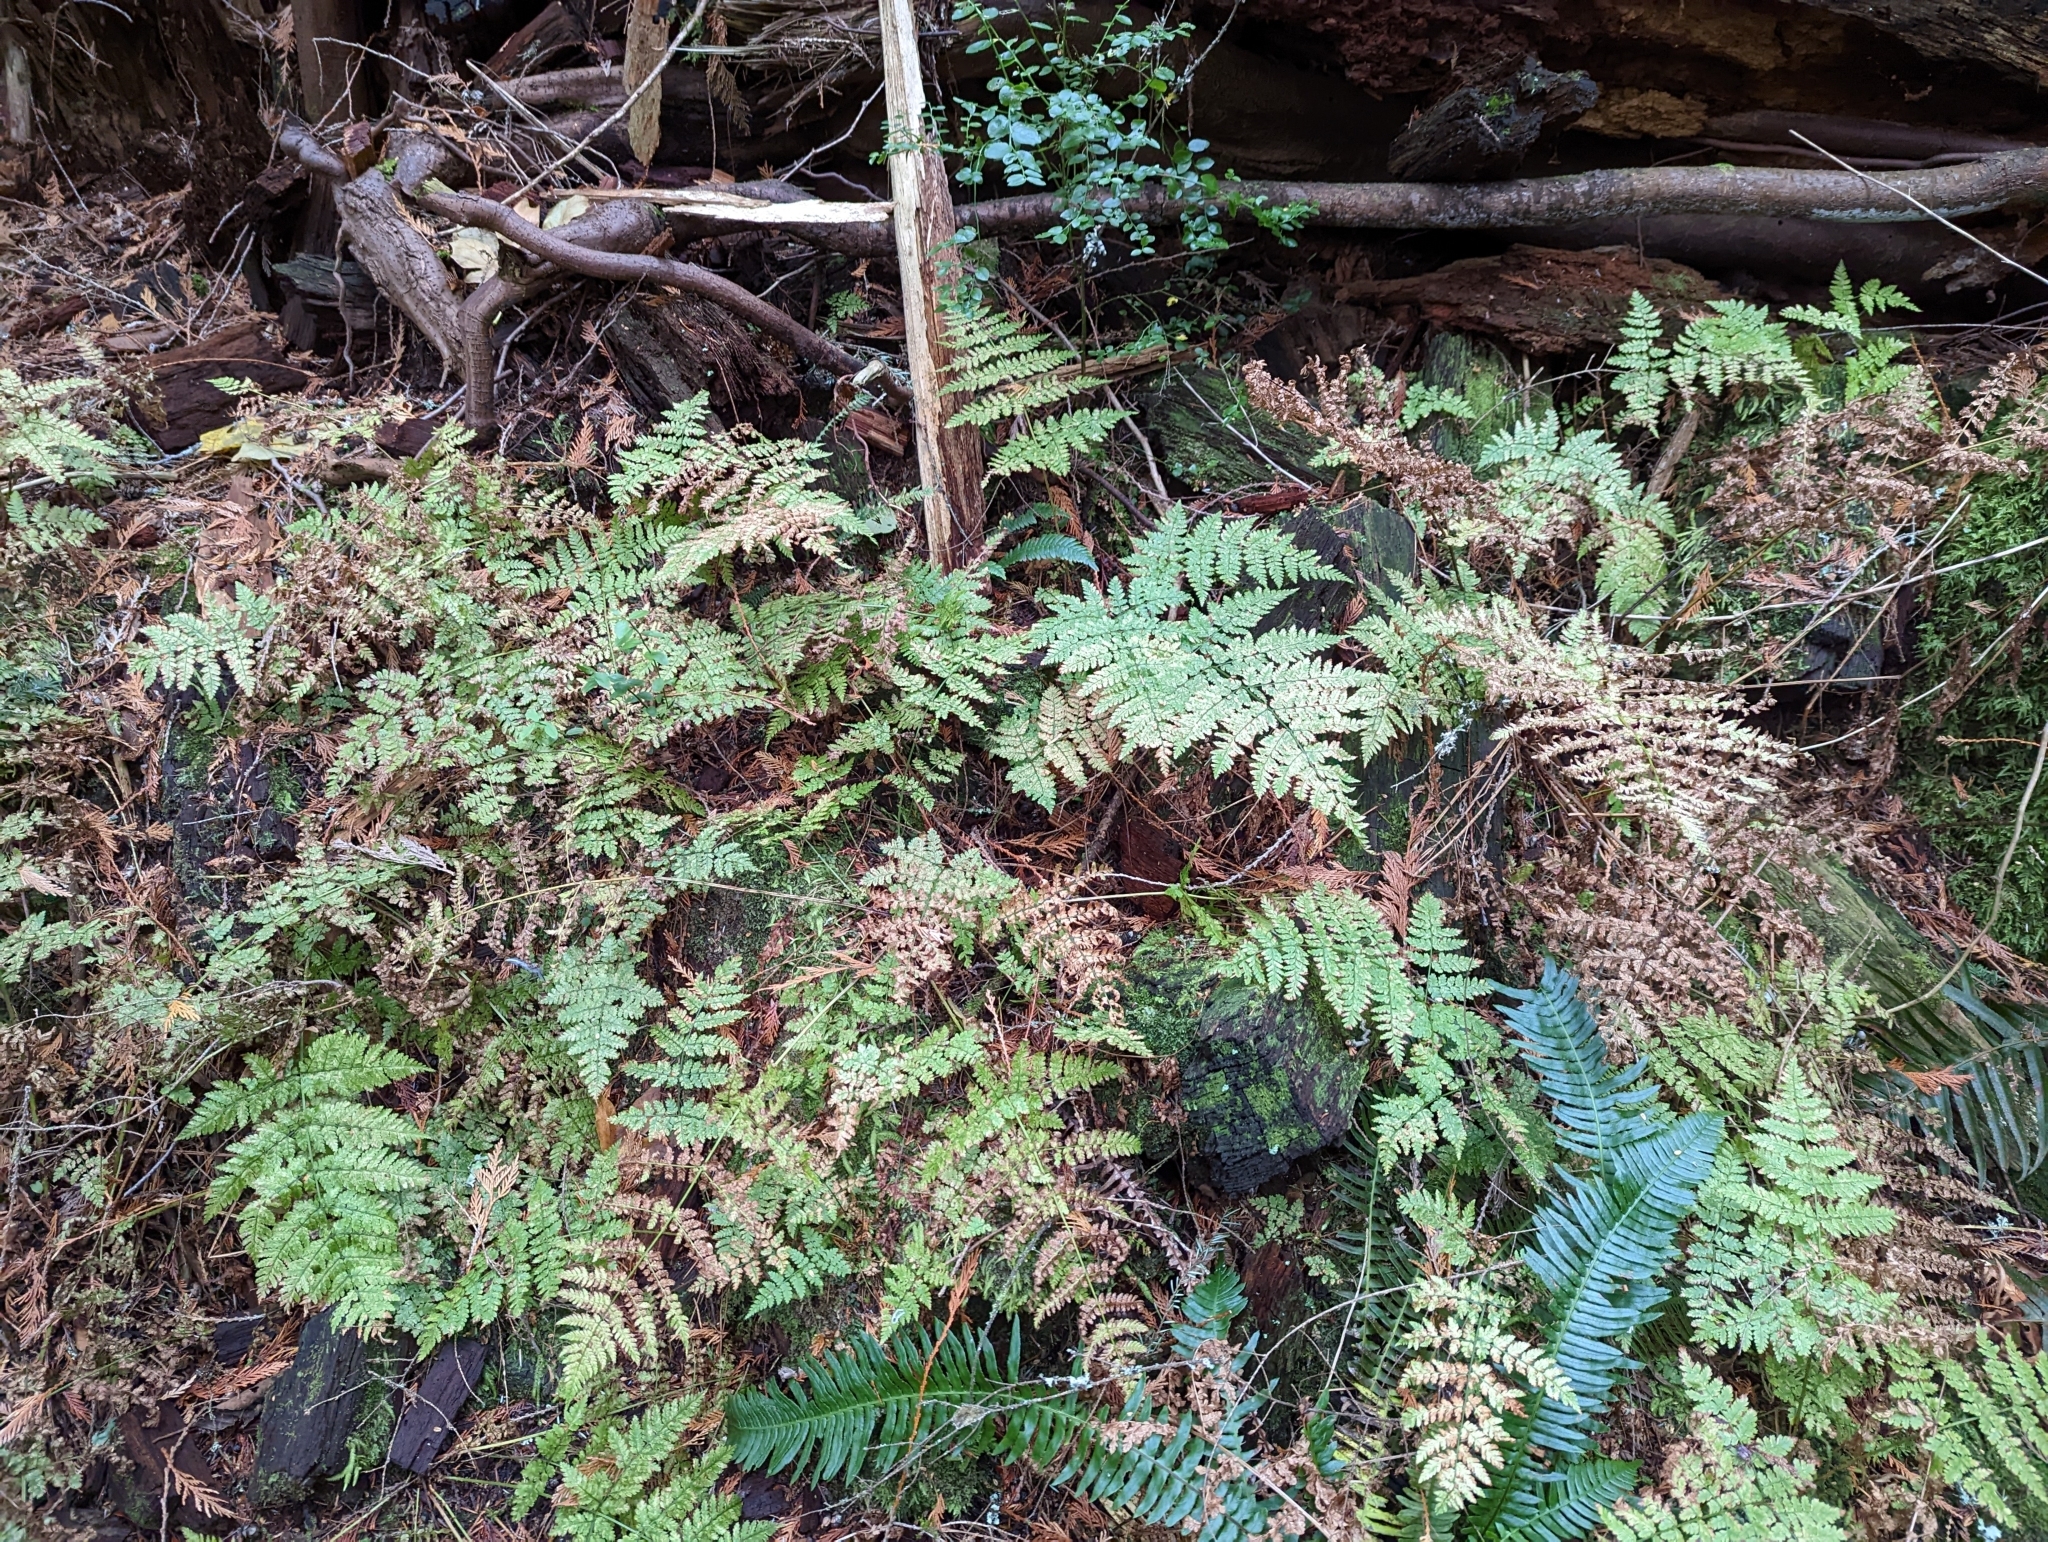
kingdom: Plantae
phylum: Tracheophyta
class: Polypodiopsida
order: Polypodiales
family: Dryopteridaceae
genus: Dryopteris
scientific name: Dryopteris expansa
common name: Northern buckler fern
